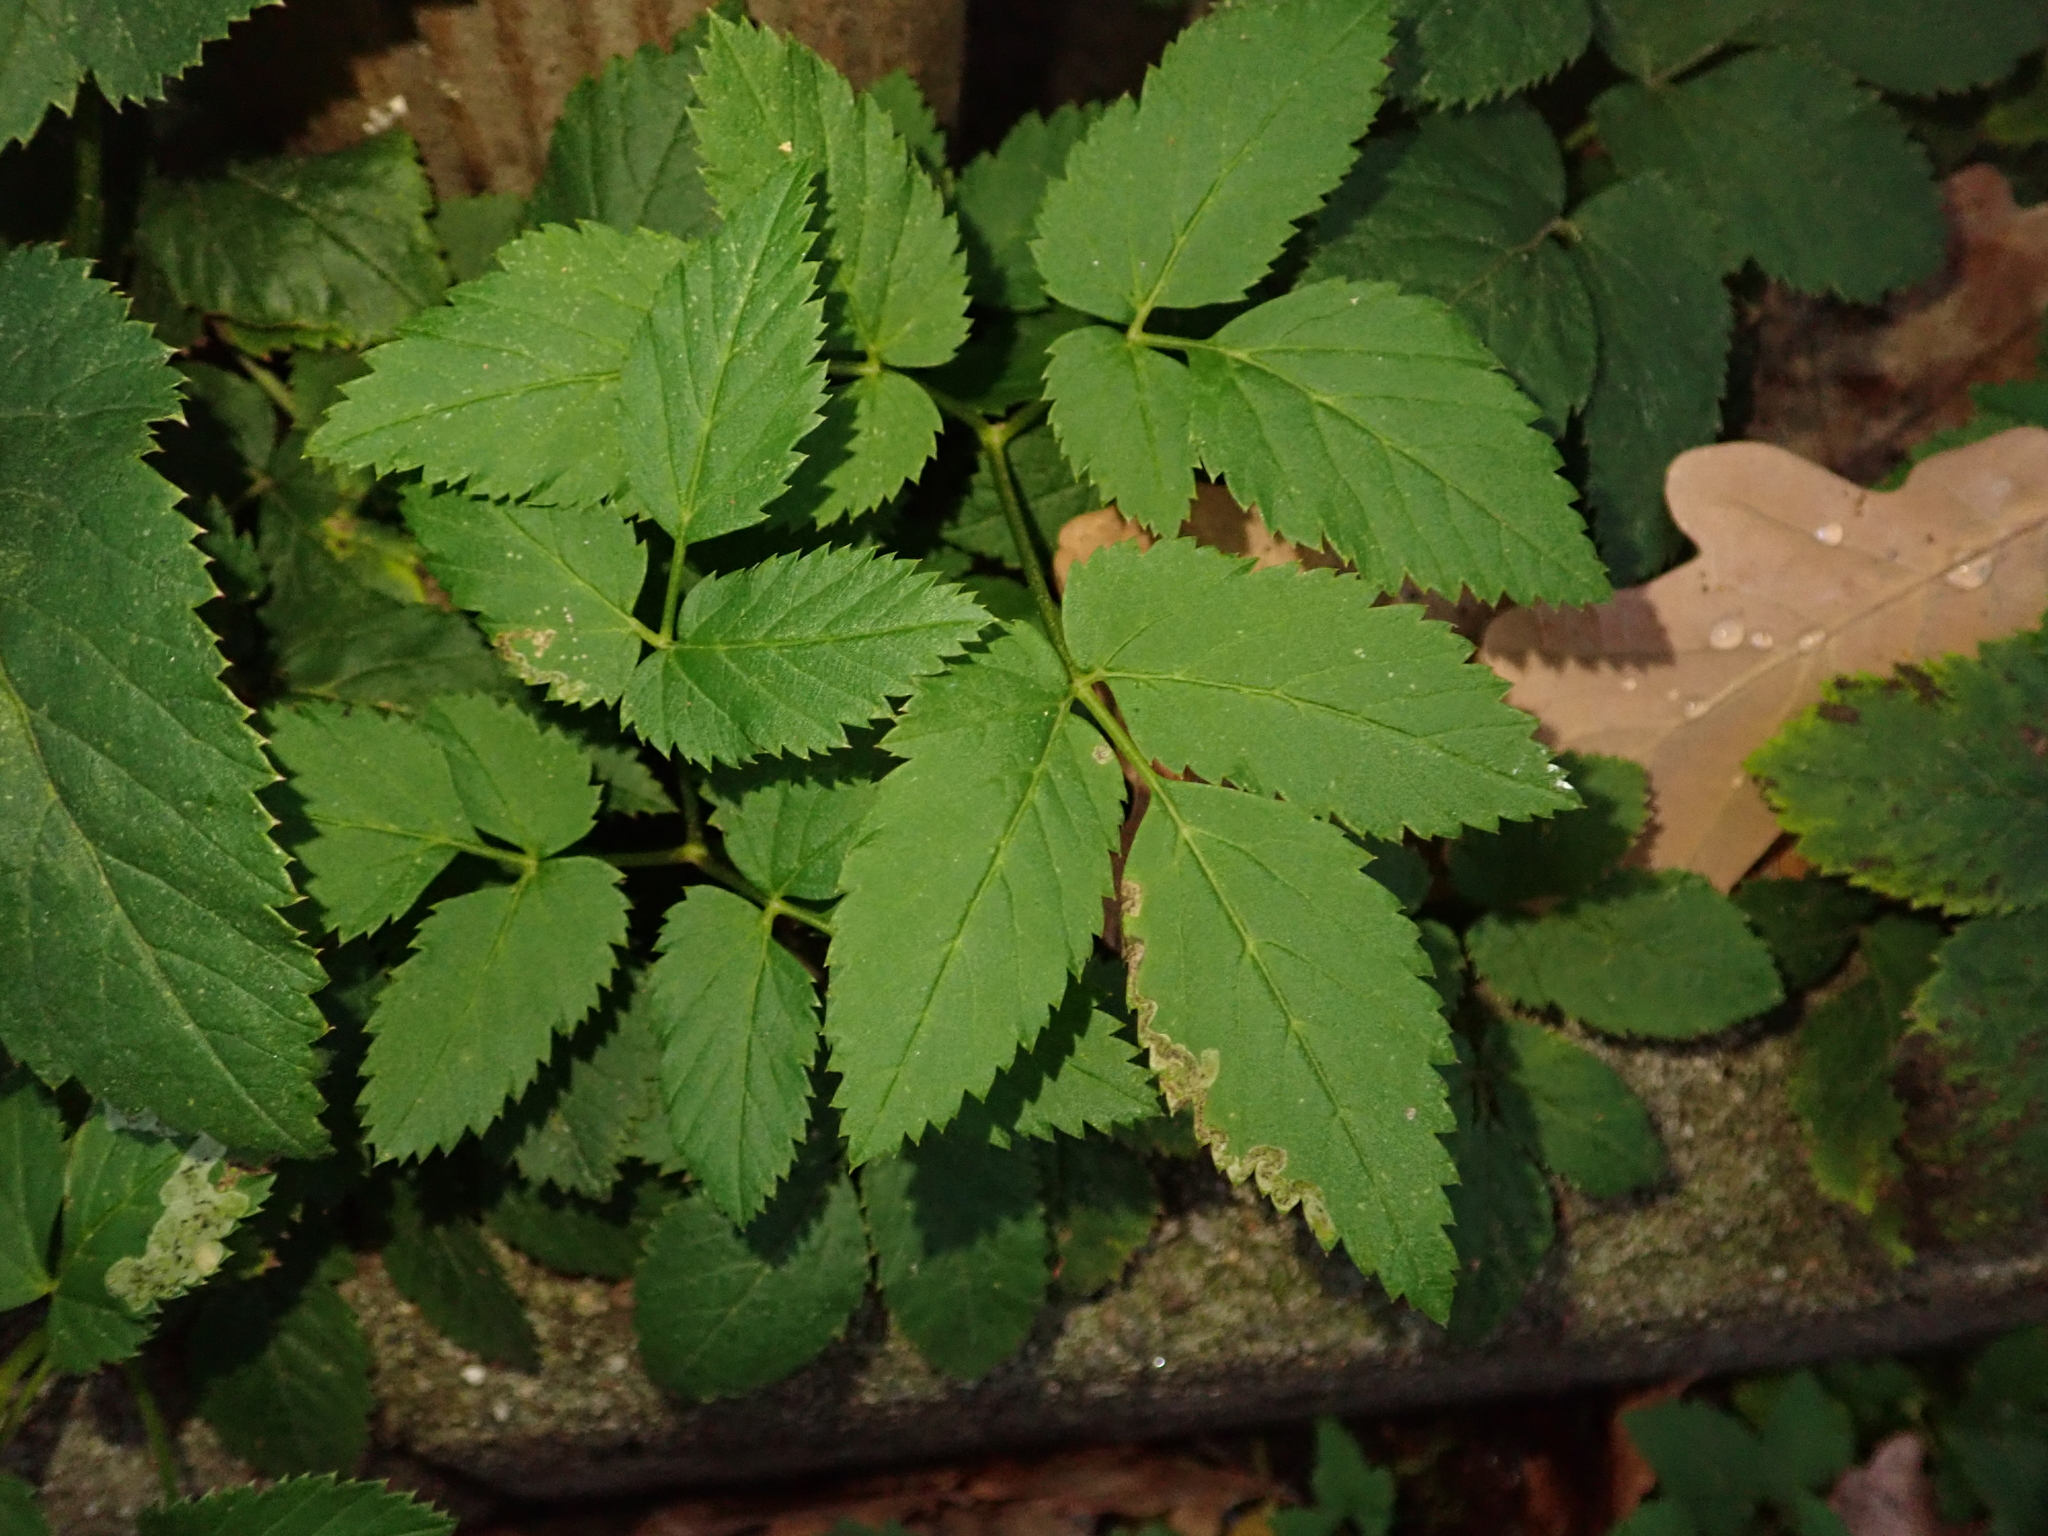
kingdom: Plantae
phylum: Tracheophyta
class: Magnoliopsida
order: Apiales
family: Apiaceae
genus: Aegopodium
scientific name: Aegopodium podagraria
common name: Ground-elder
